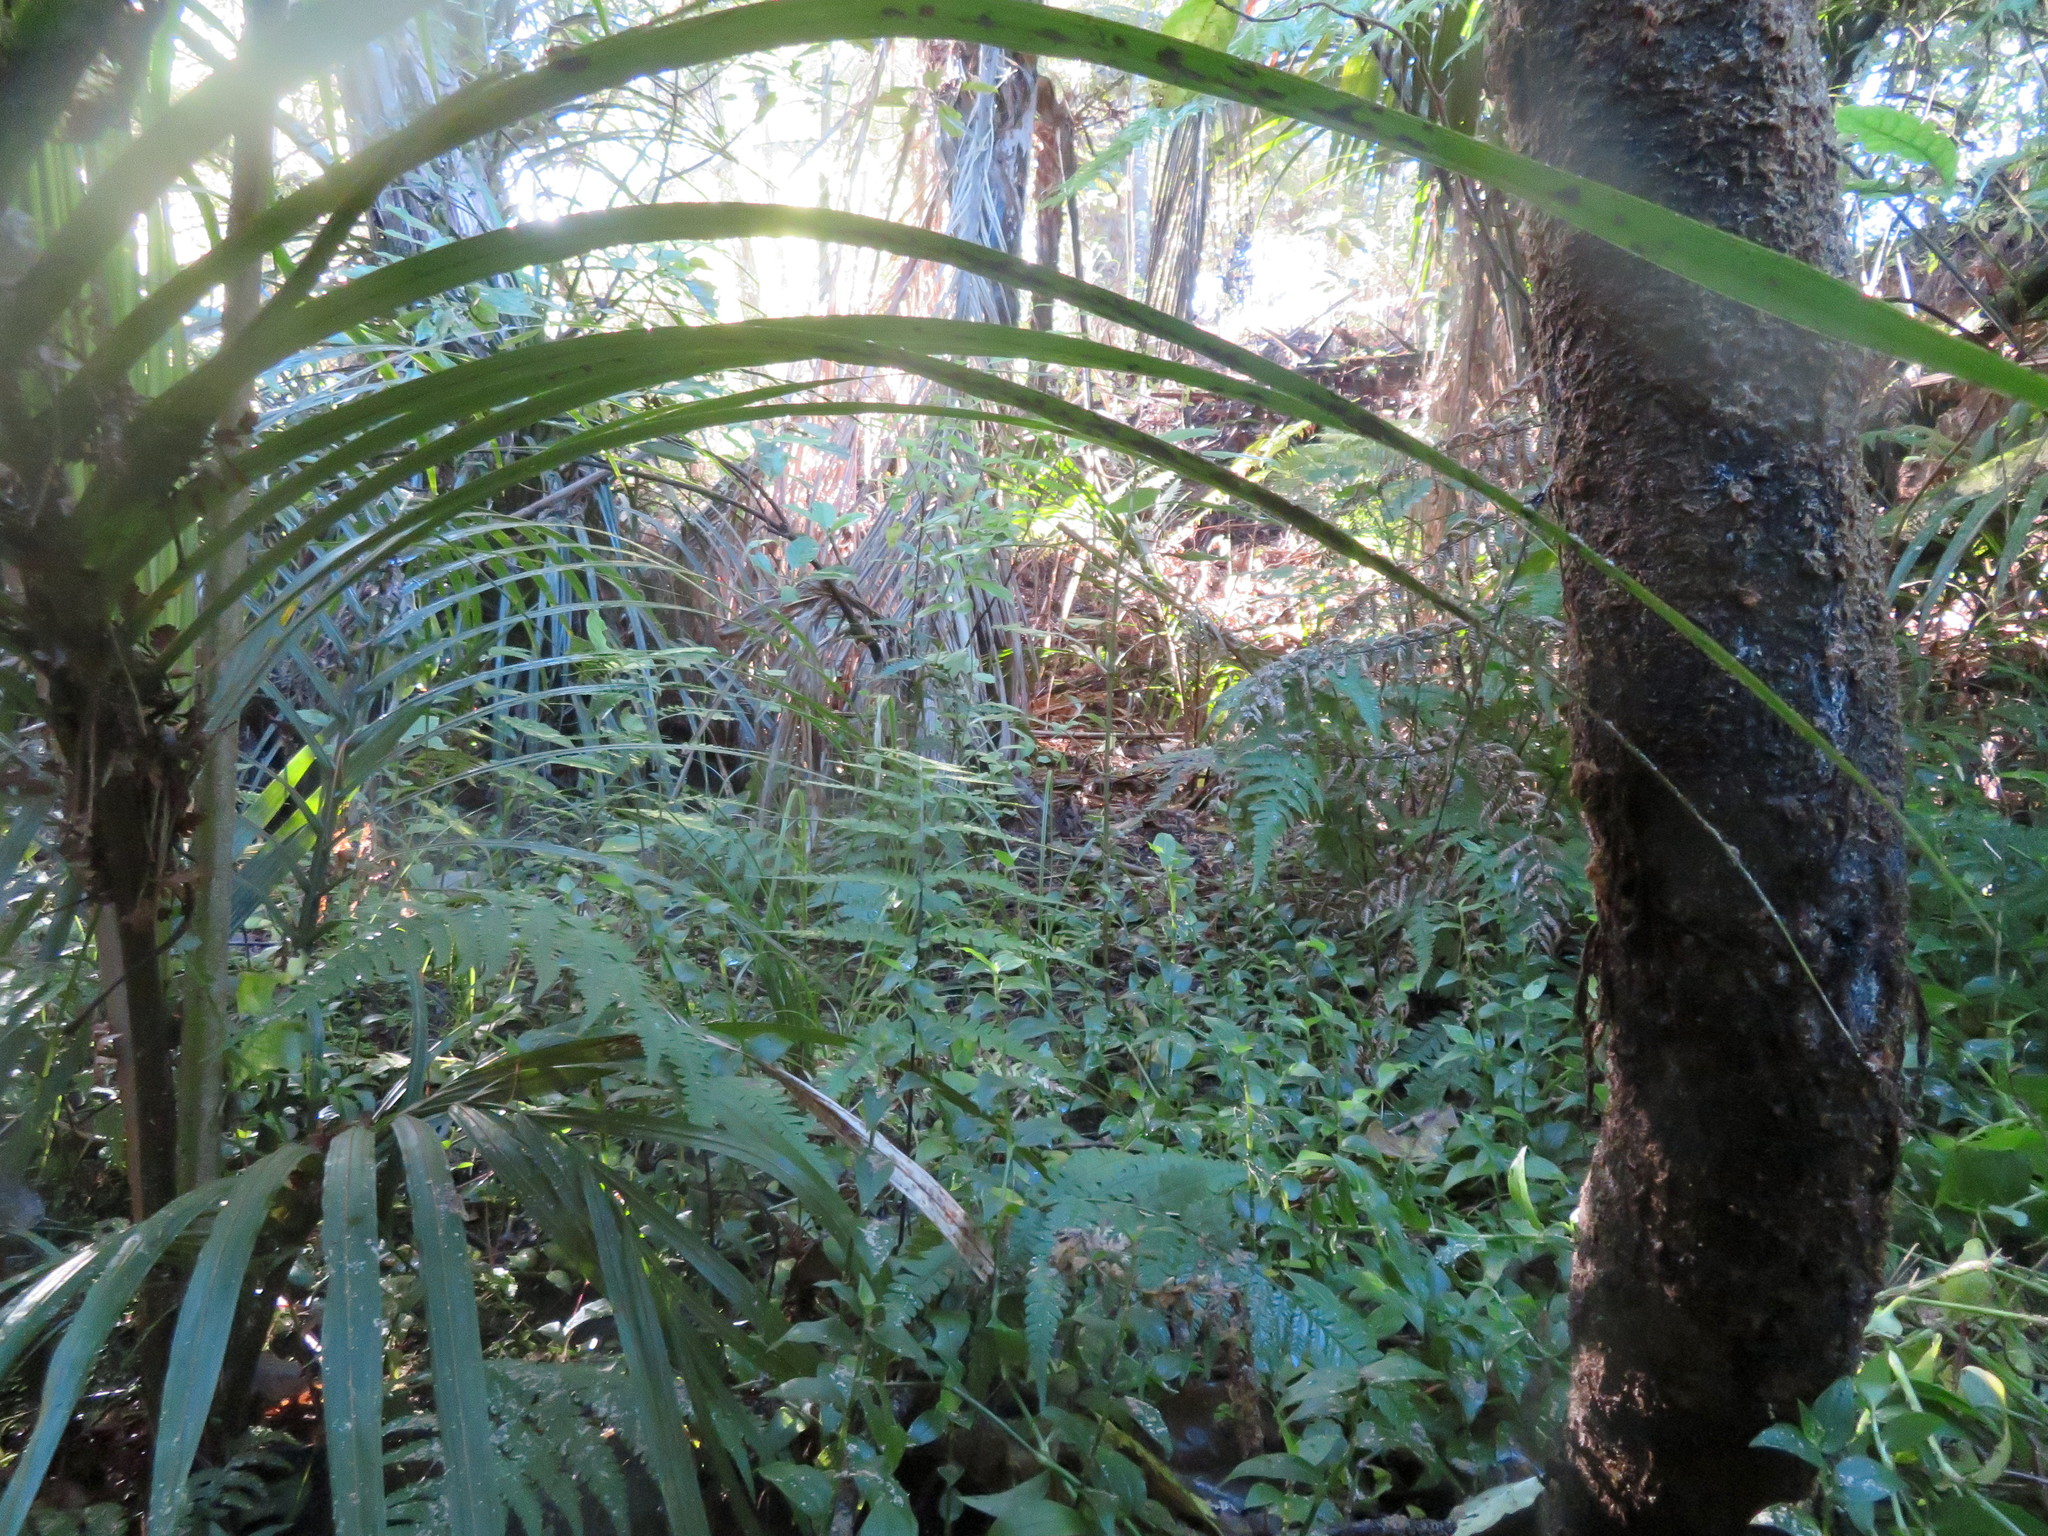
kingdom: Plantae
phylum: Tracheophyta
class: Liliopsida
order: Commelinales
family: Commelinaceae
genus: Tradescantia
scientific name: Tradescantia fluminensis
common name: Wandering-jew
